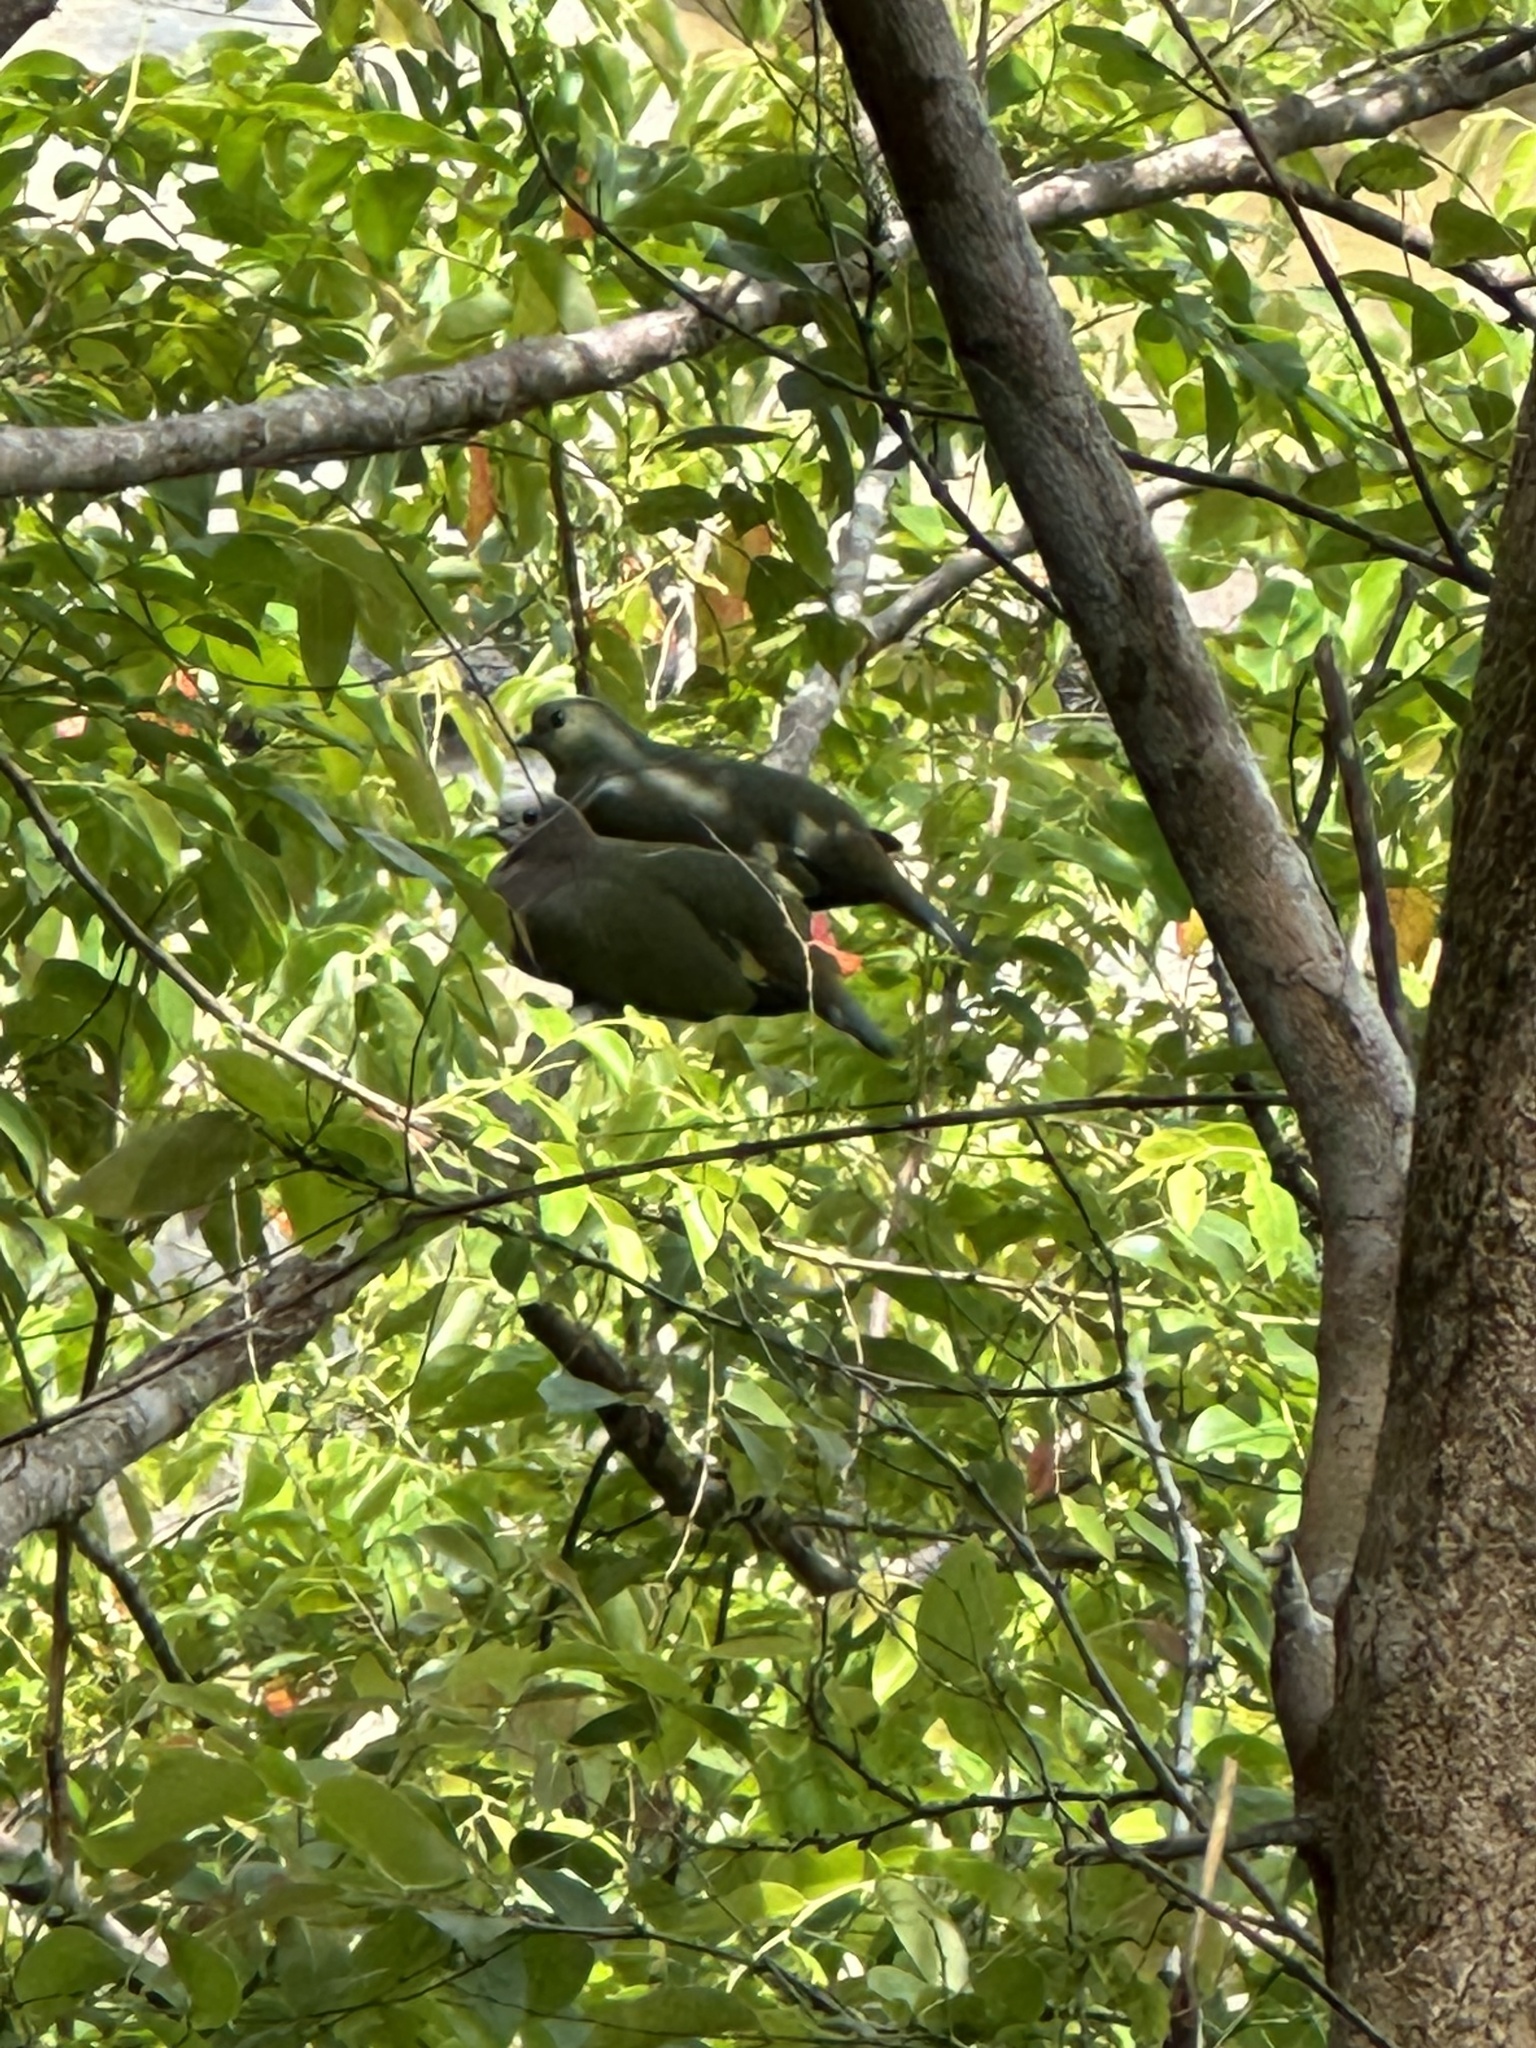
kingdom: Animalia
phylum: Chordata
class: Aves
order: Columbiformes
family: Columbidae
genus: Treron
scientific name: Treron vernans
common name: Pink-necked green pigeon
